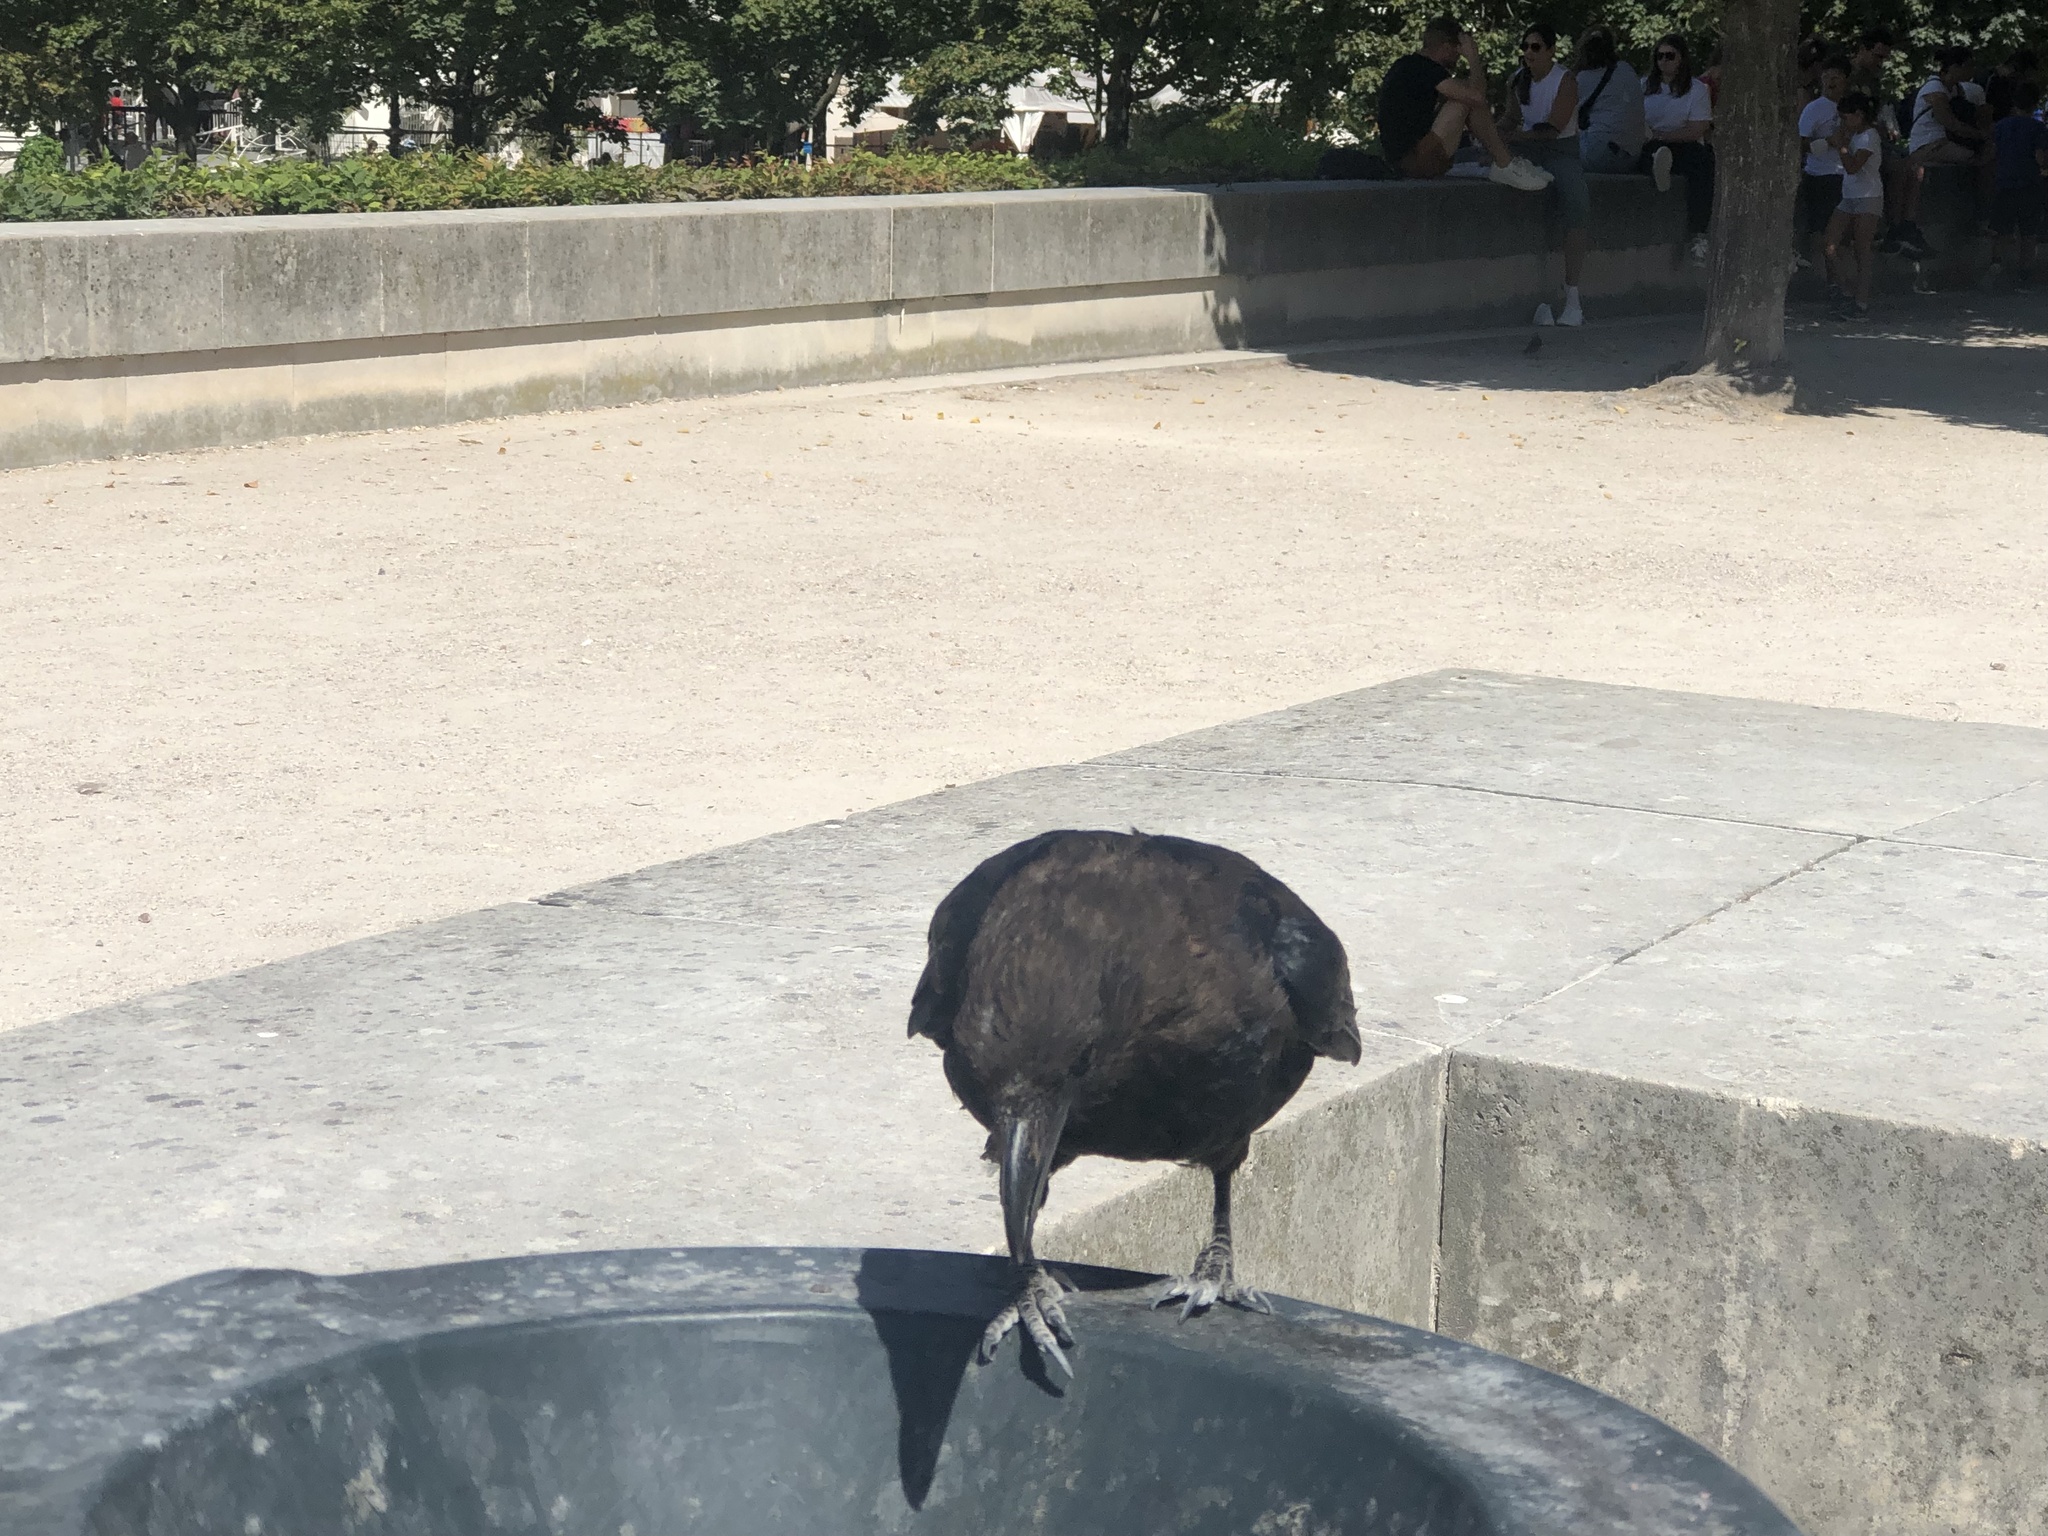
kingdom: Animalia
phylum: Chordata
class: Aves
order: Passeriformes
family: Corvidae
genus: Corvus
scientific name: Corvus corone
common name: Carrion crow
